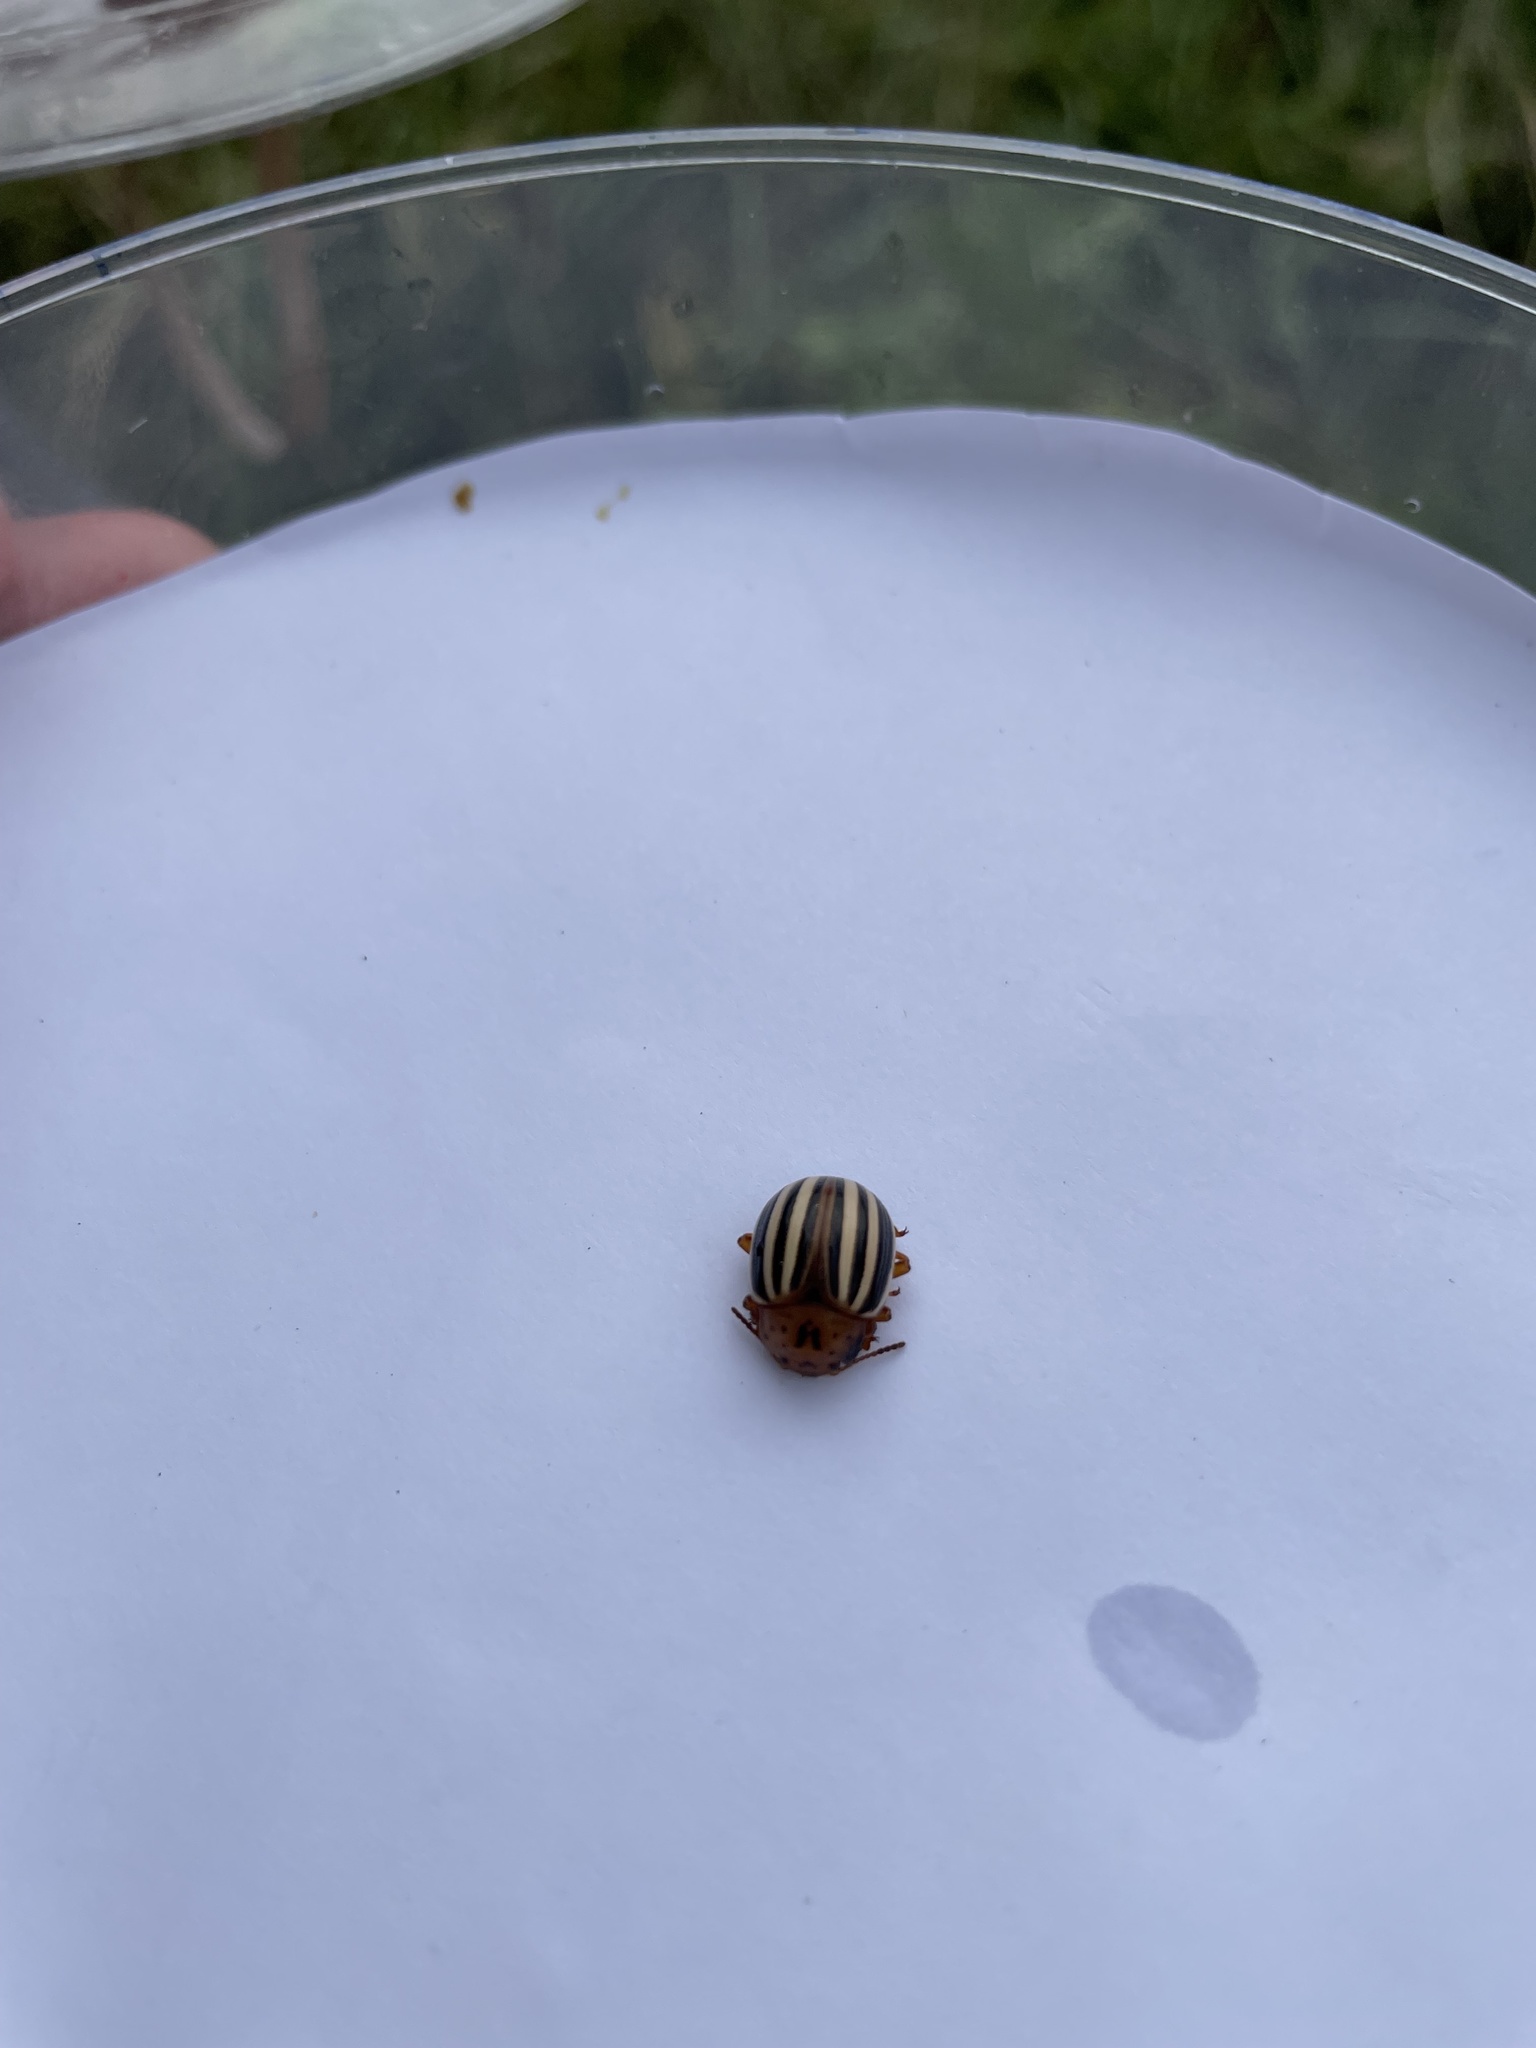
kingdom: Animalia
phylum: Arthropoda
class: Insecta
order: Coleoptera
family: Chrysomelidae
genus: Leptinotarsa
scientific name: Leptinotarsa juncta
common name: False potato beetle
